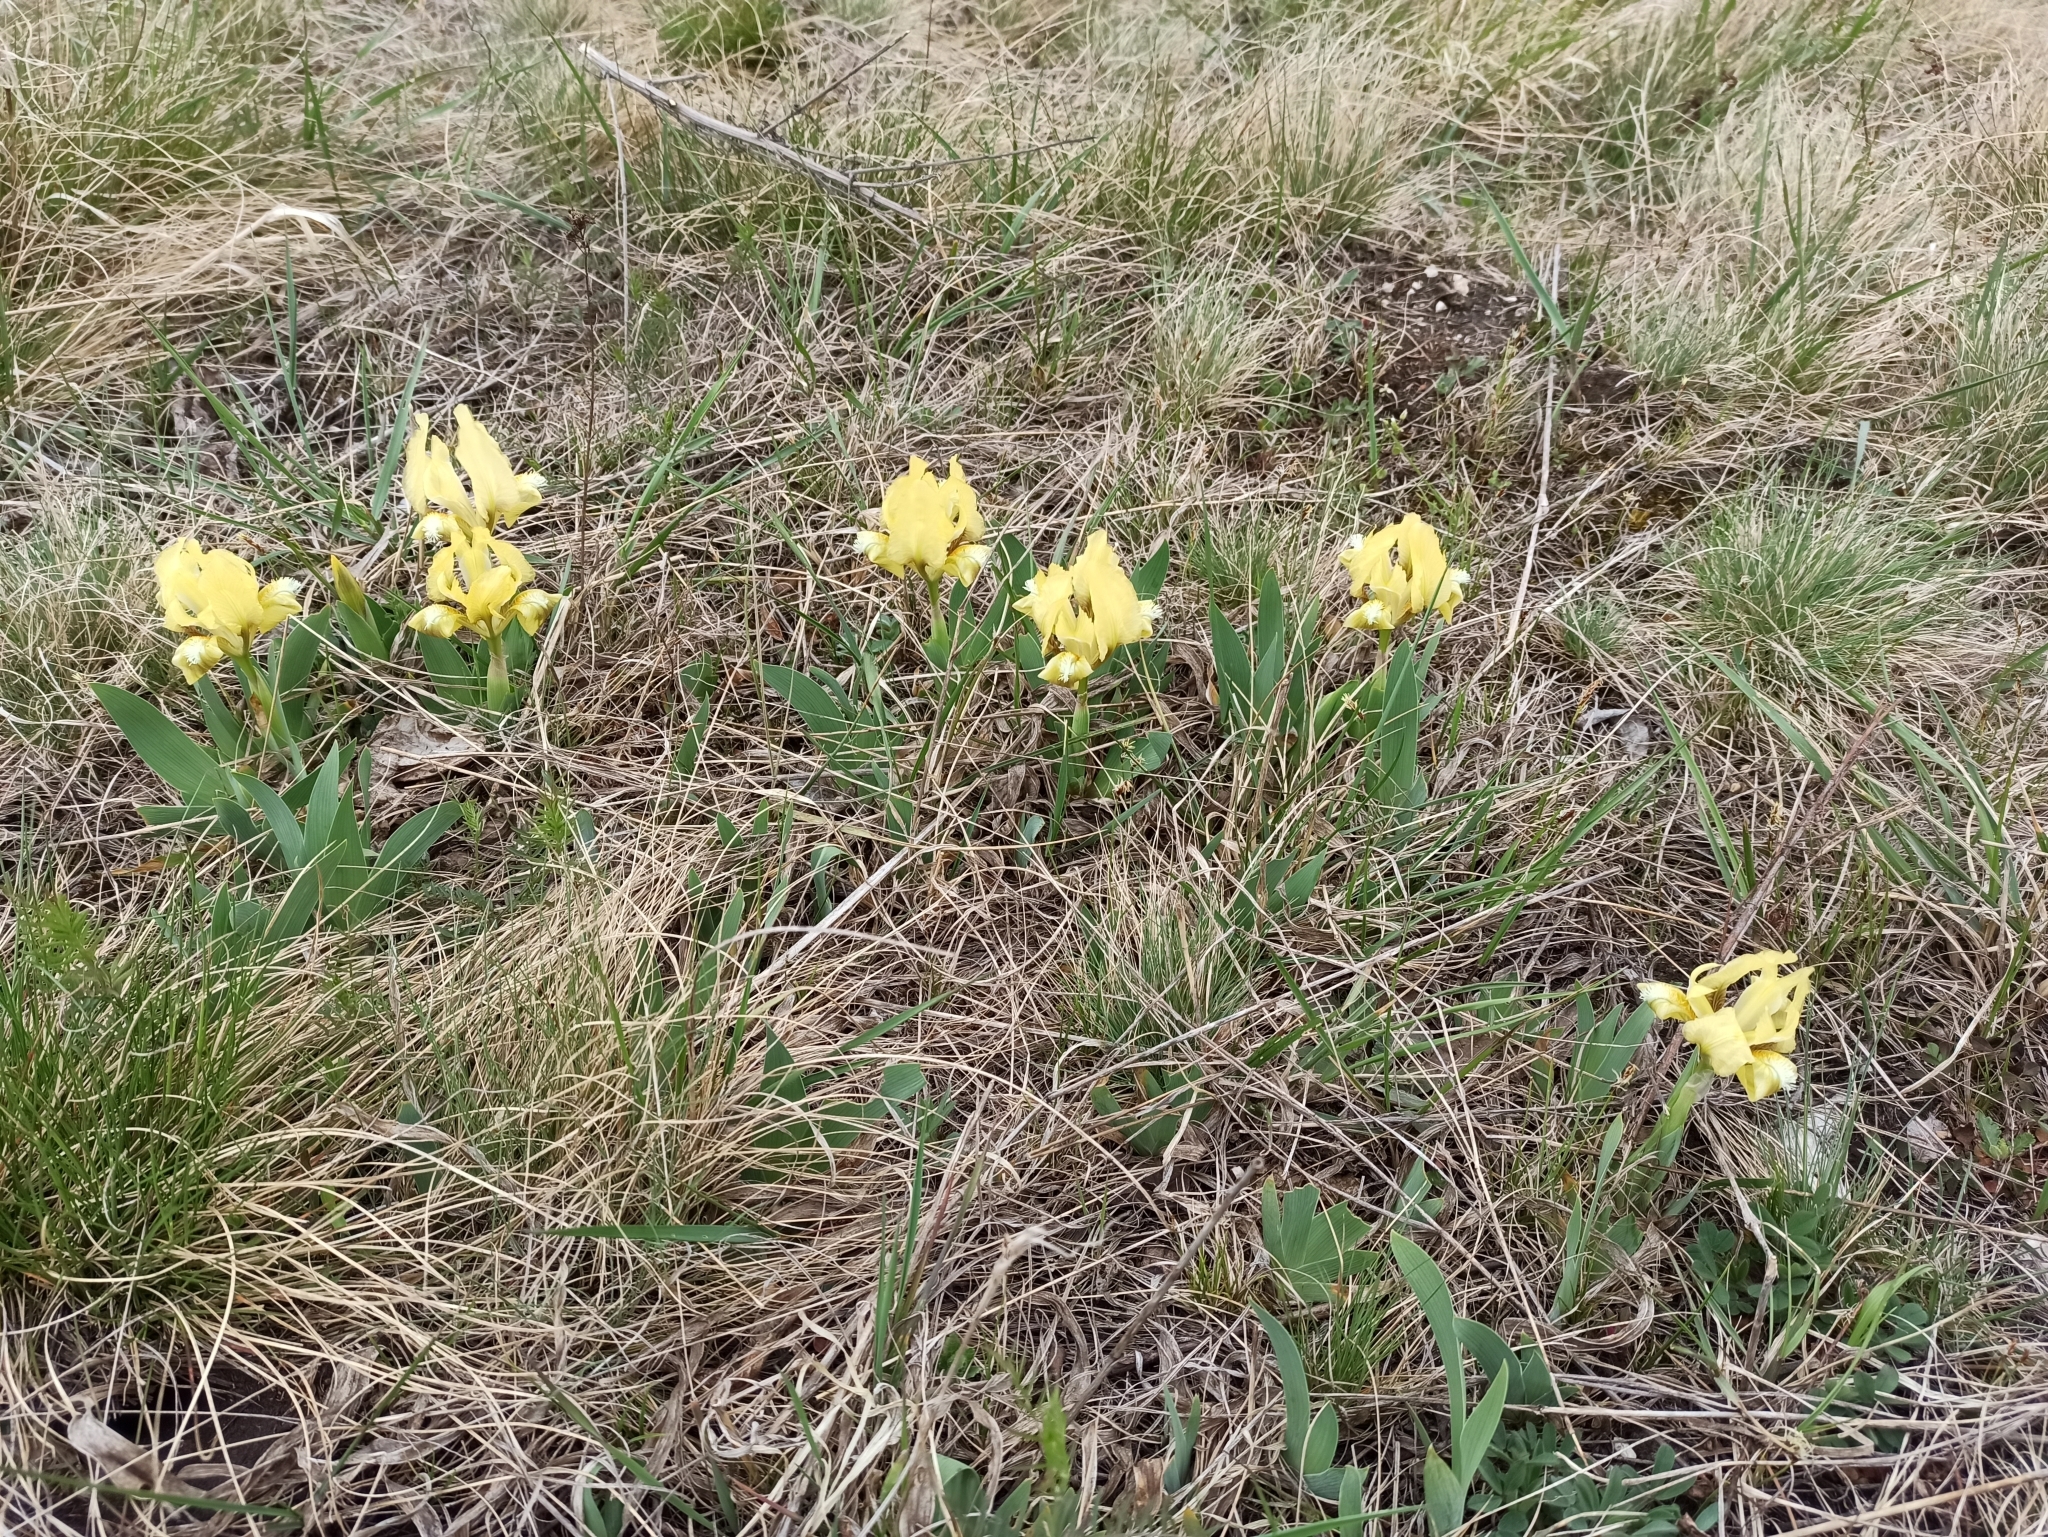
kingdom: Plantae
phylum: Tracheophyta
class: Liliopsida
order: Asparagales
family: Iridaceae
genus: Iris
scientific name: Iris pumila
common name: Dwarf iris
